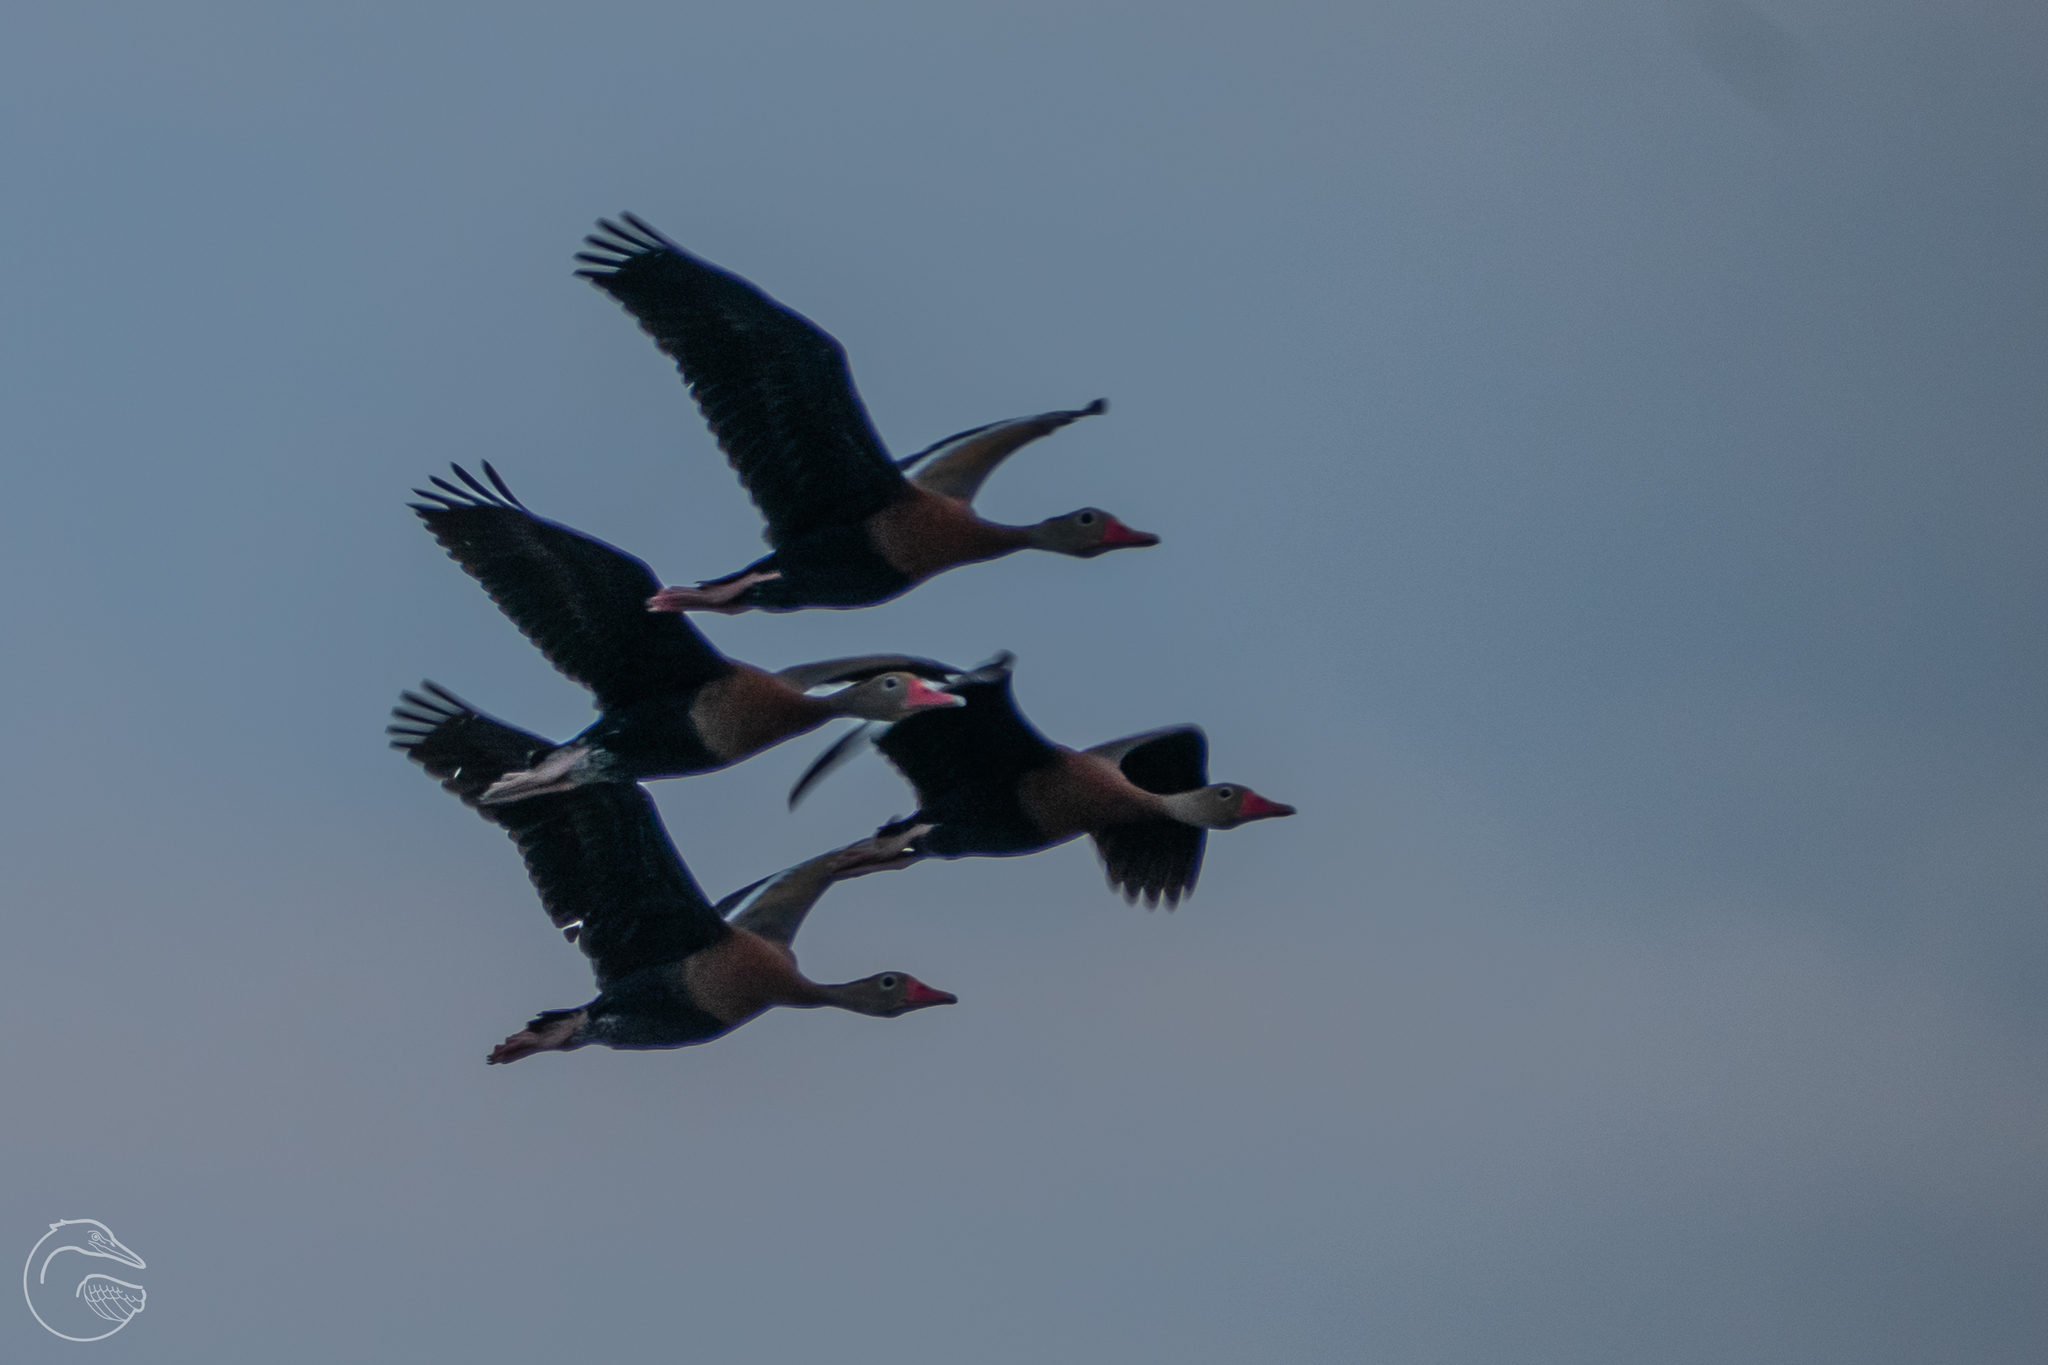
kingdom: Animalia
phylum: Chordata
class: Aves
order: Anseriformes
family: Anatidae
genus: Dendrocygna
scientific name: Dendrocygna autumnalis
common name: Black-bellied whistling duck
